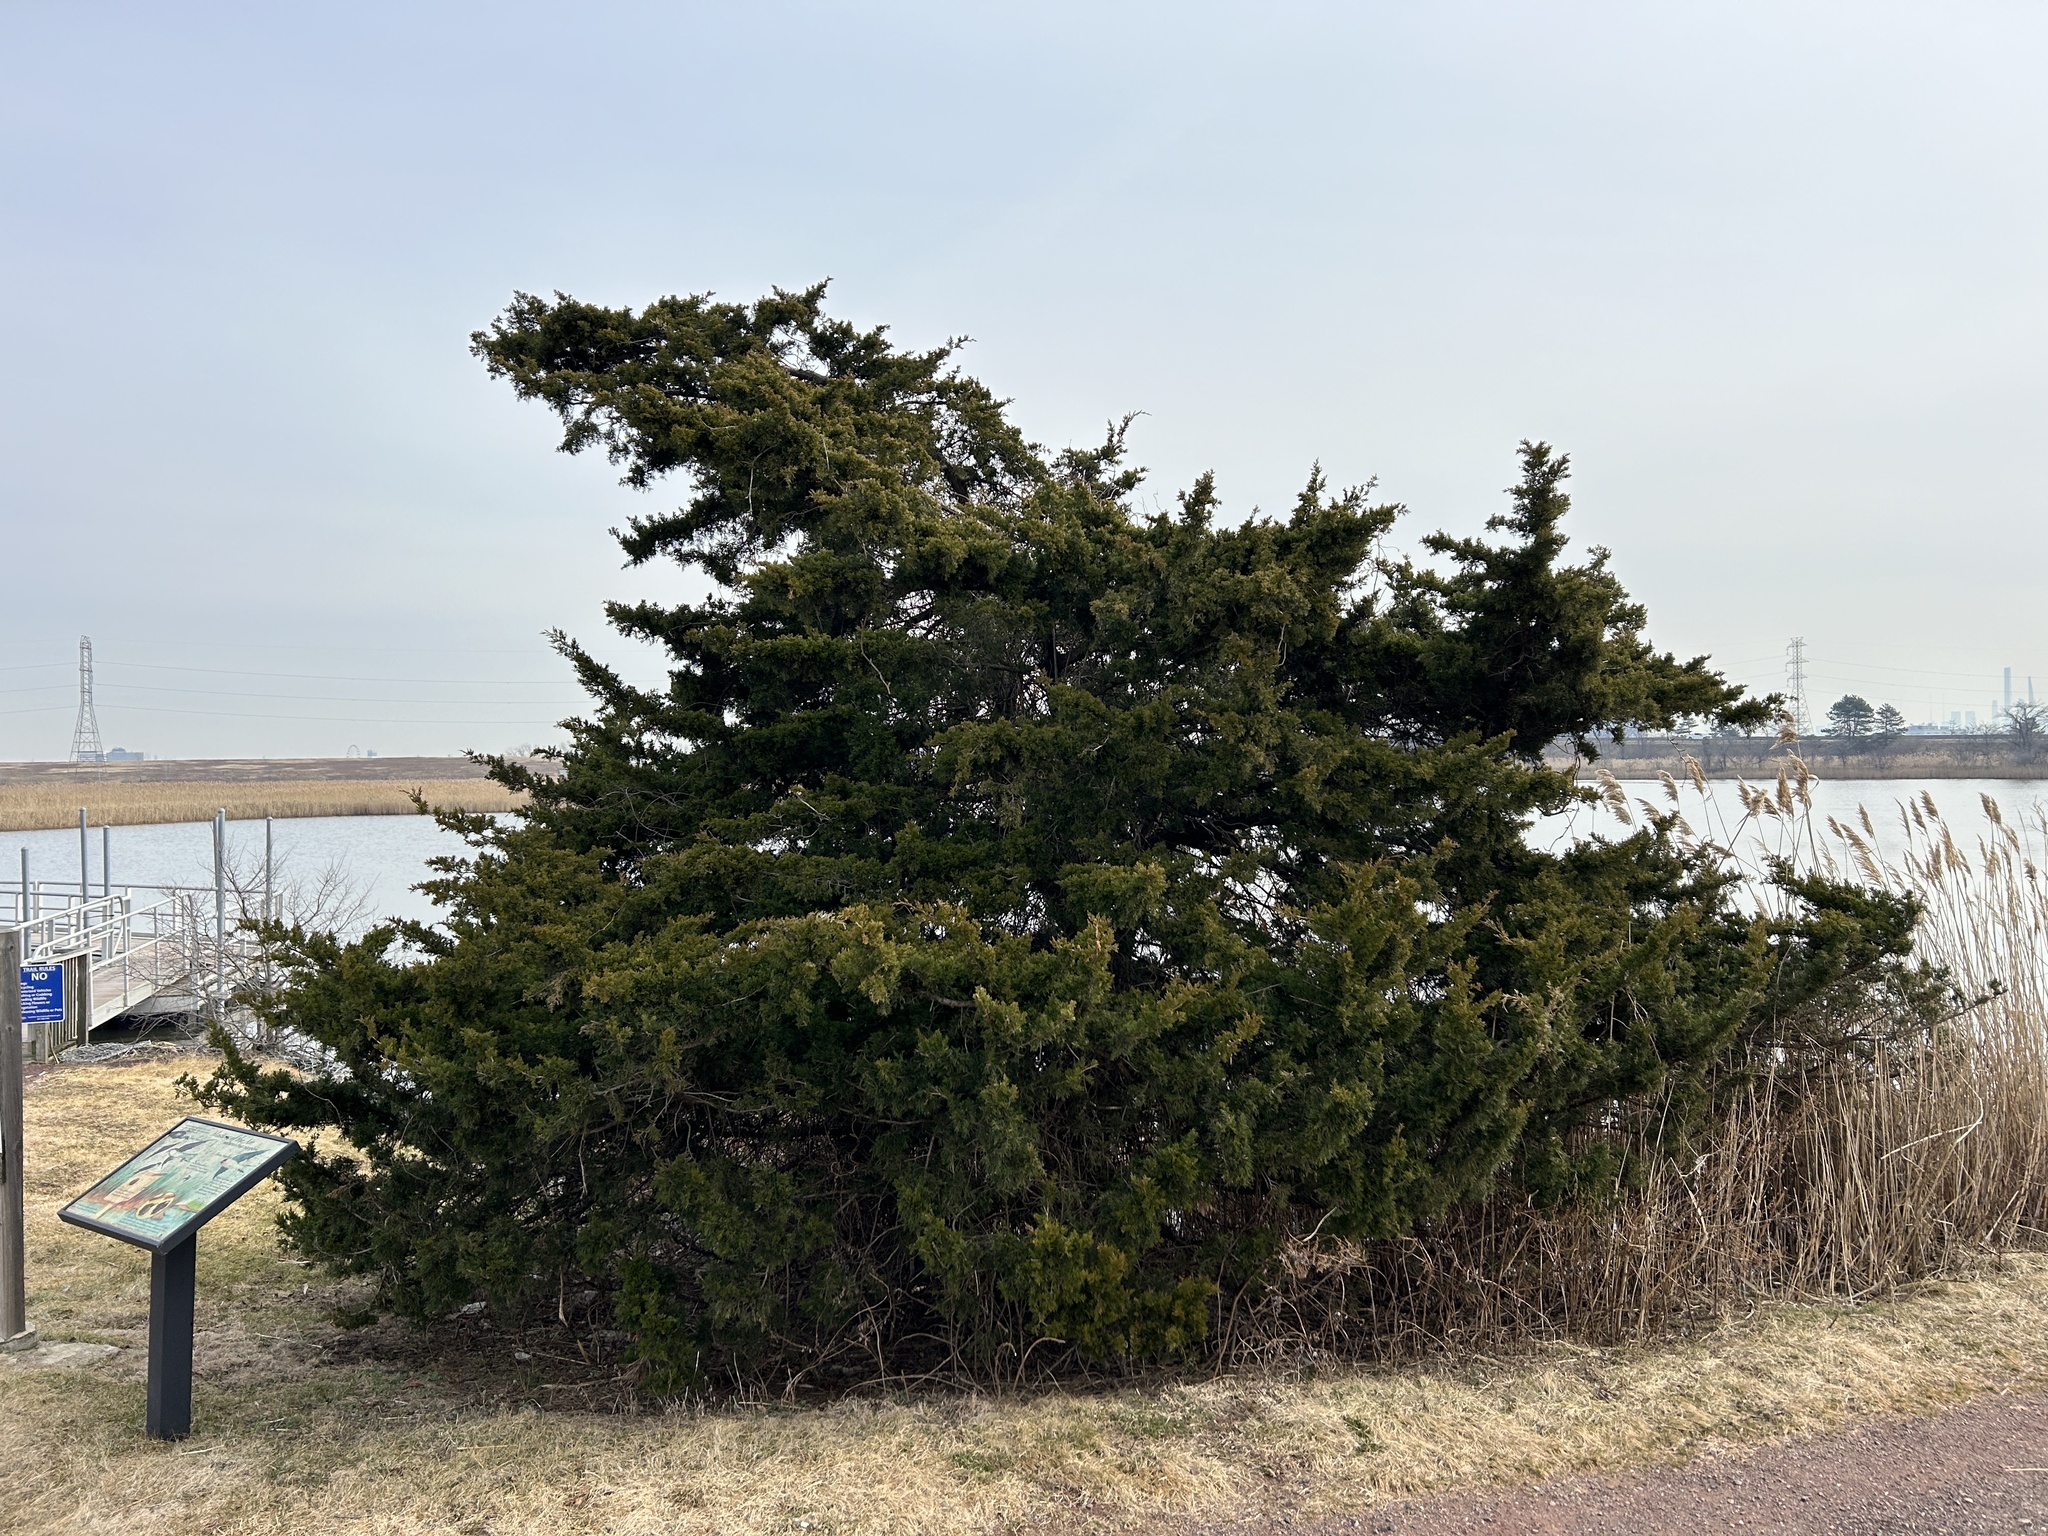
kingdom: Plantae
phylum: Tracheophyta
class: Pinopsida
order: Pinales
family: Cupressaceae
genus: Juniperus
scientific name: Juniperus virginiana
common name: Red juniper
